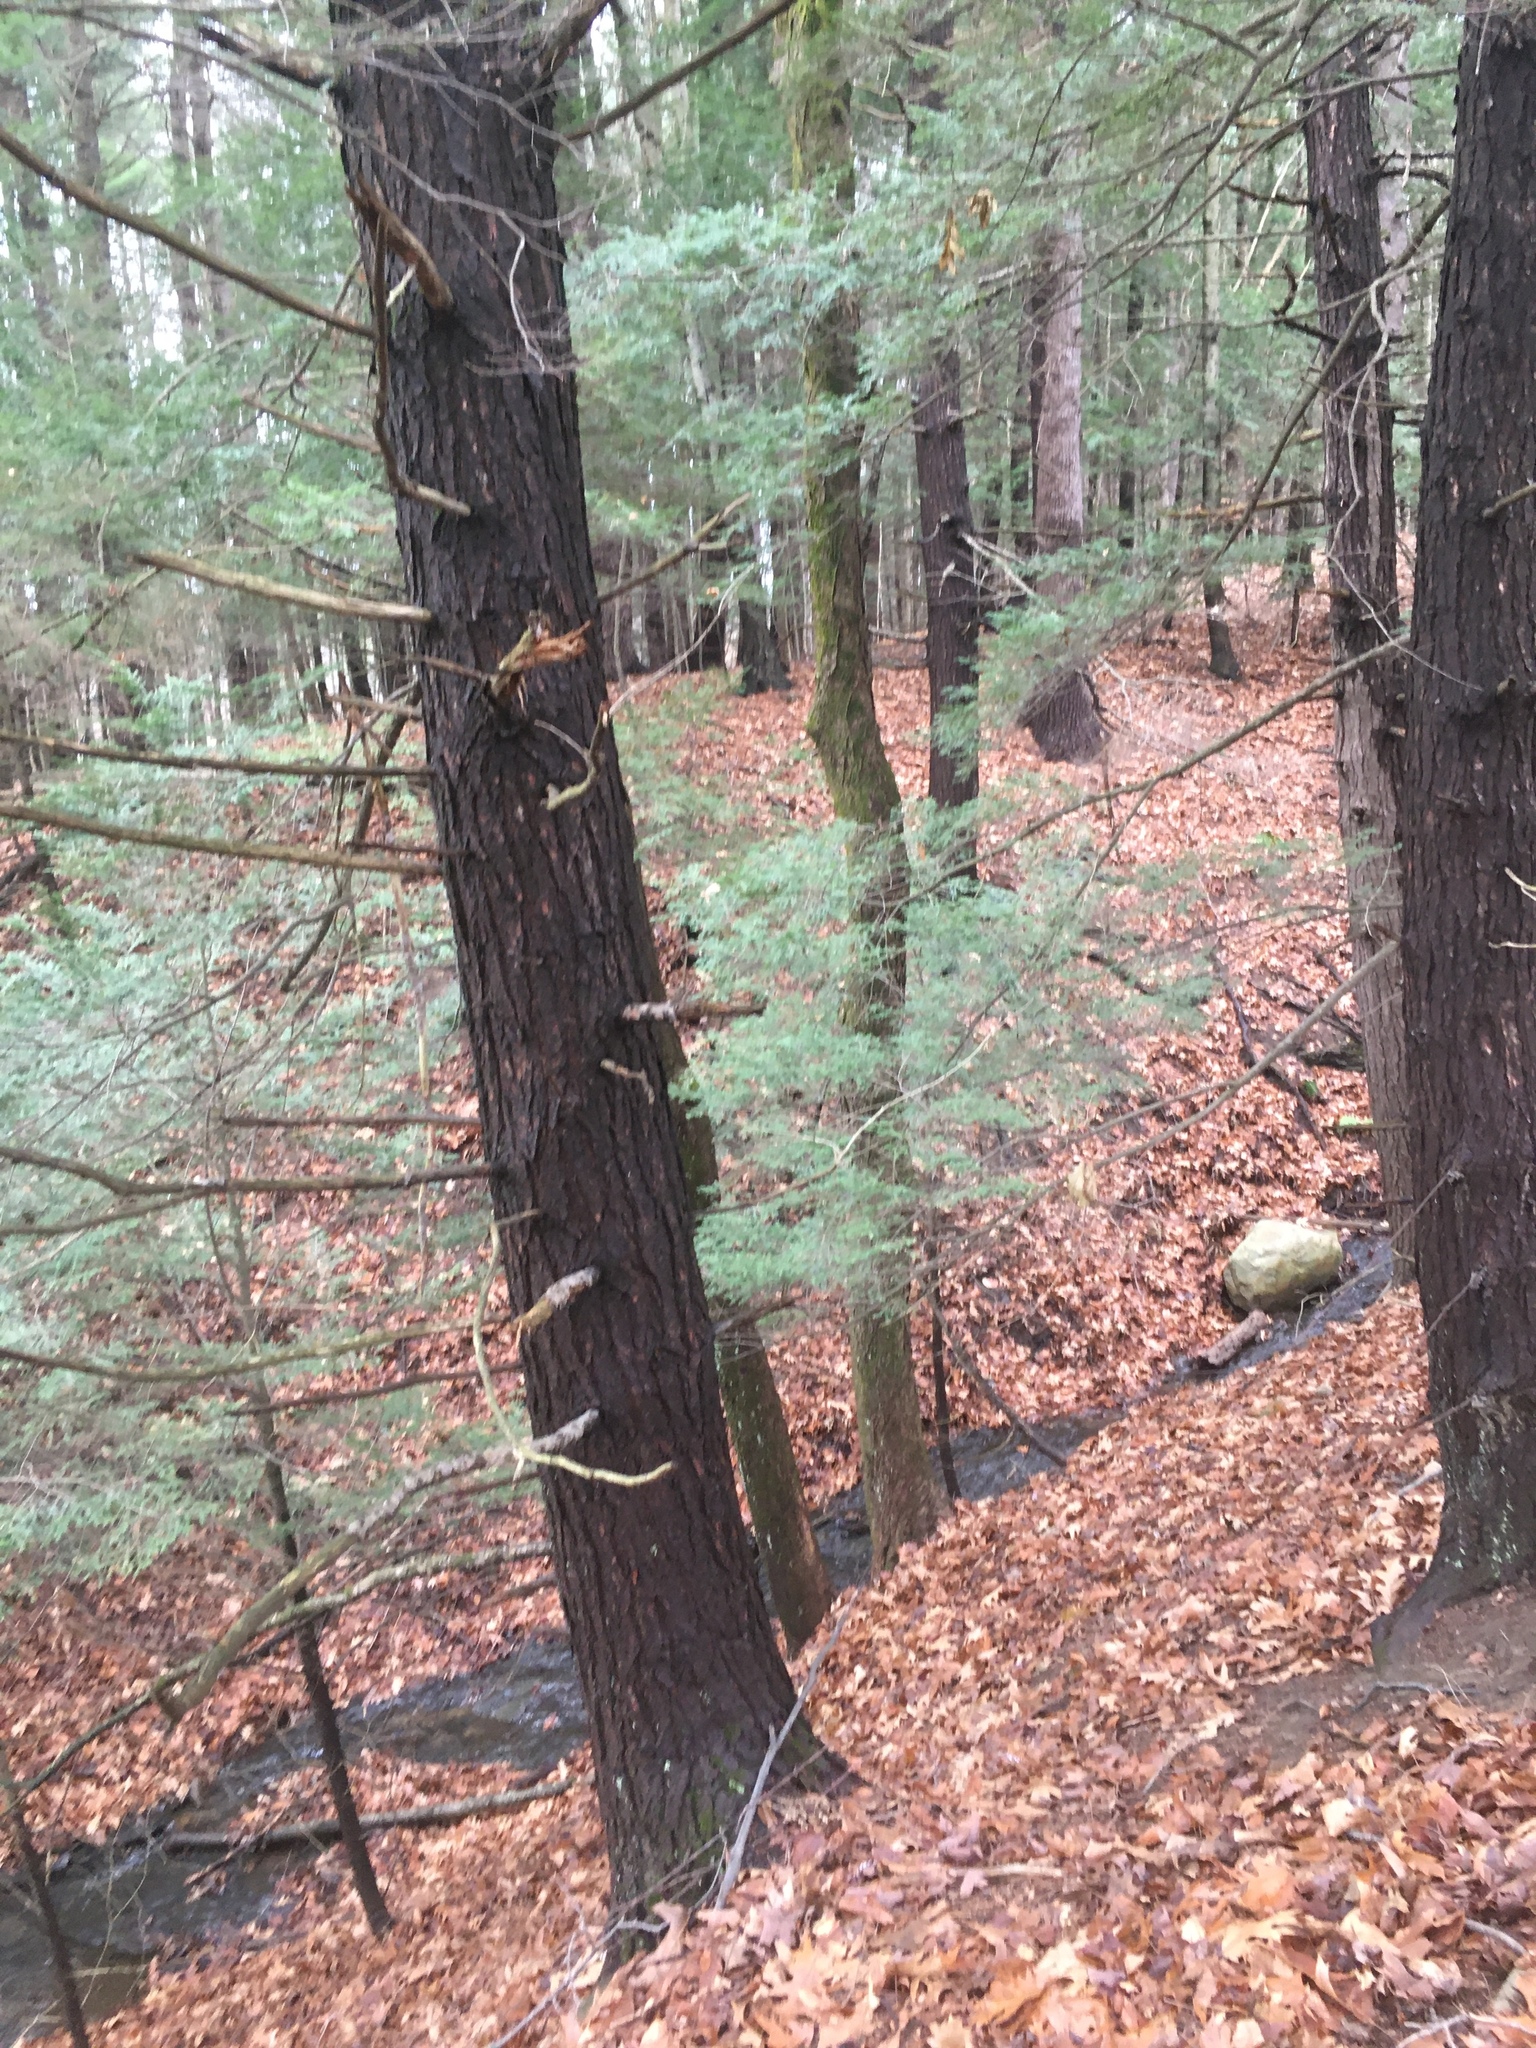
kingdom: Plantae
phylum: Tracheophyta
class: Pinopsida
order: Pinales
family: Pinaceae
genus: Tsuga
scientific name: Tsuga canadensis
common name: Eastern hemlock
